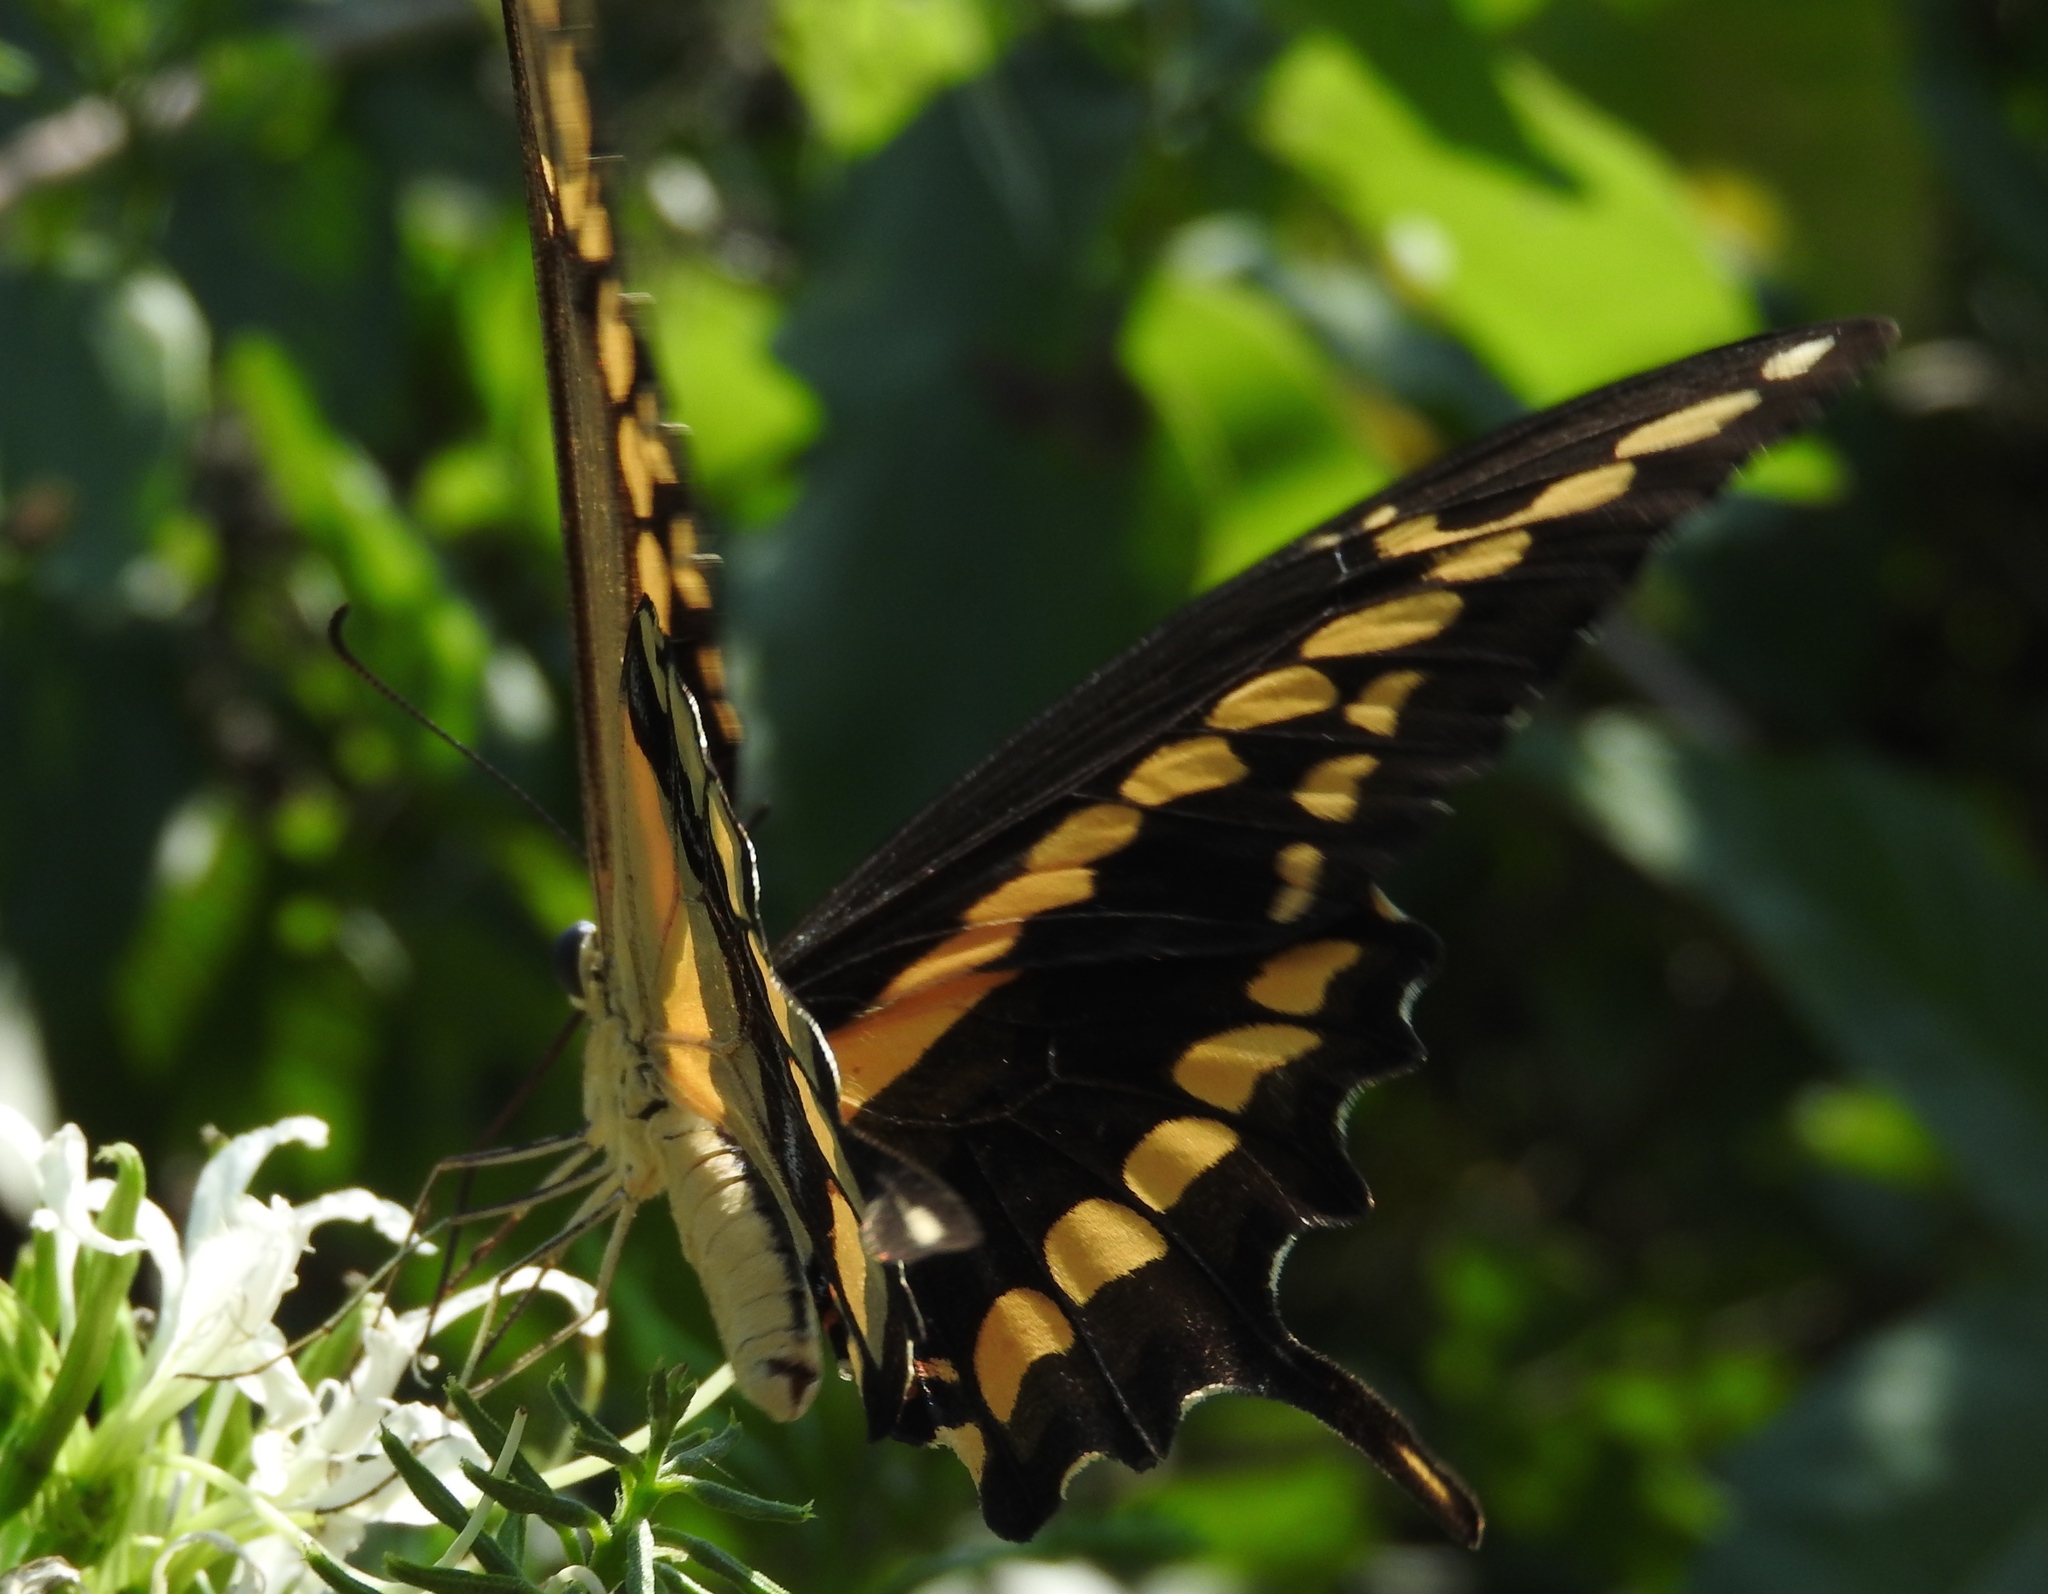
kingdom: Animalia
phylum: Arthropoda
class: Insecta
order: Lepidoptera
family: Papilionidae
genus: Papilio
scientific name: Papilio rumiko
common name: Western giant swallowtail
